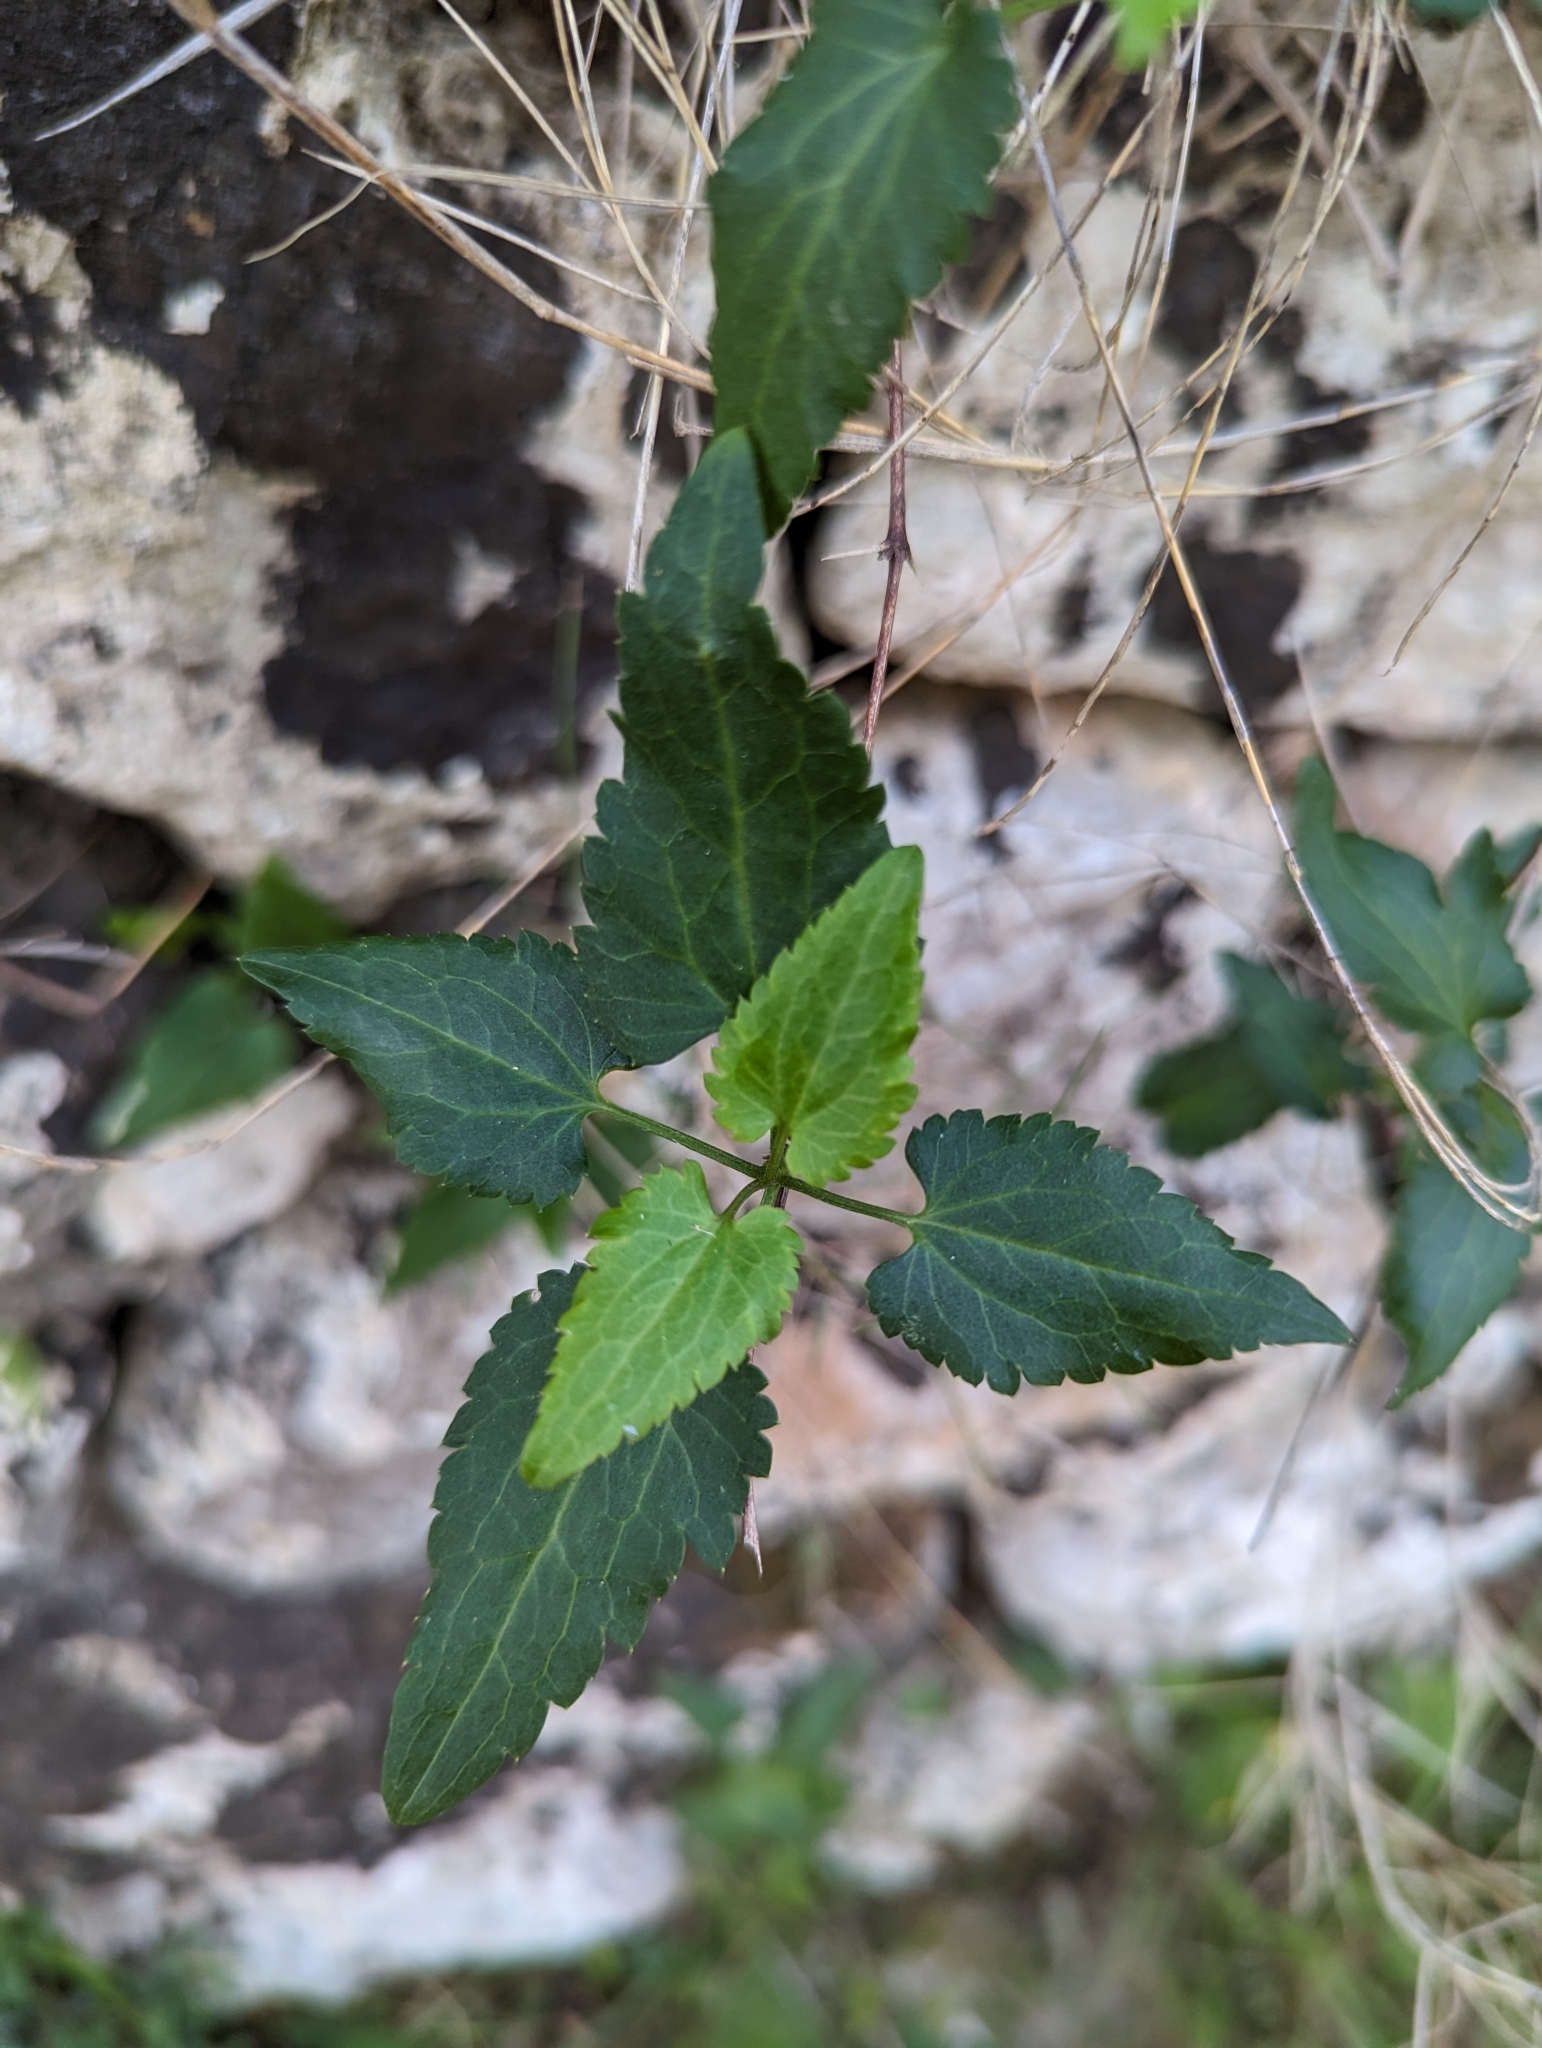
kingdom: Plantae
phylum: Tracheophyta
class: Magnoliopsida
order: Ranunculales
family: Ranunculaceae
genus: Clematis
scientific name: Clematis cirrhosa
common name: Early virgin's-bower
